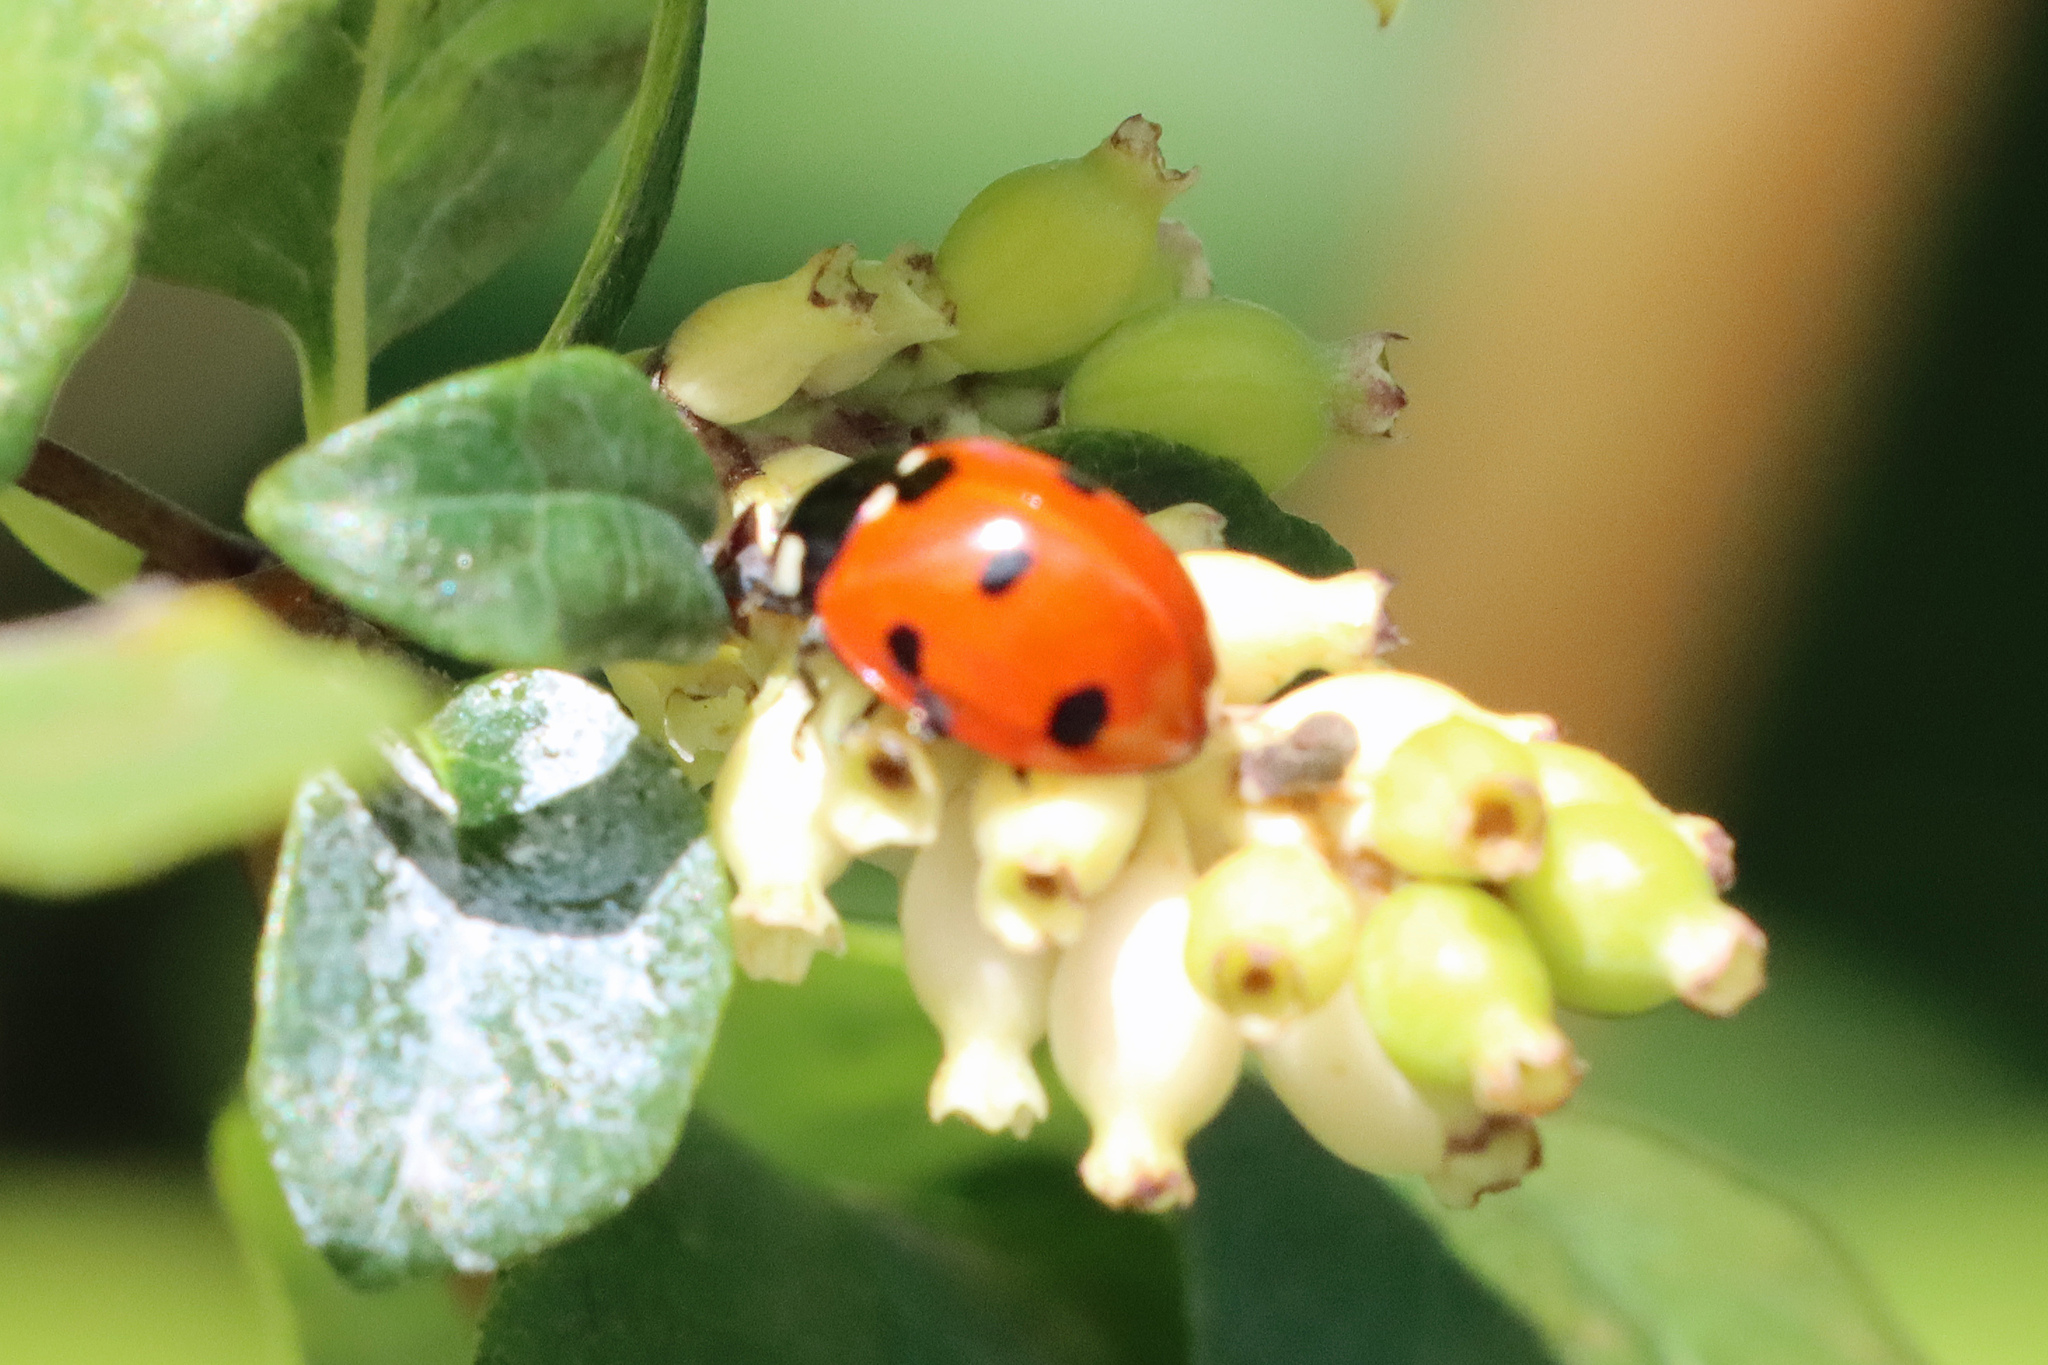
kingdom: Animalia
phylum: Arthropoda
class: Insecta
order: Coleoptera
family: Coccinellidae
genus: Coccinella
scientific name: Coccinella septempunctata
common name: Sevenspotted lady beetle
